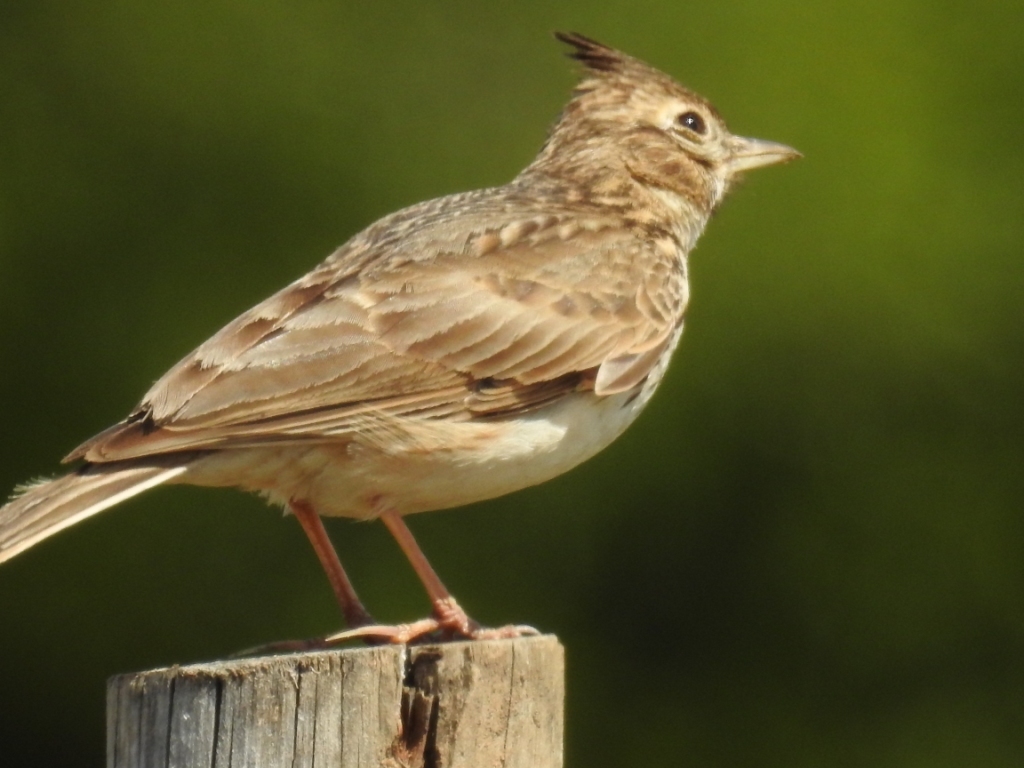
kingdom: Animalia
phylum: Chordata
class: Aves
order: Passeriformes
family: Alaudidae
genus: Galerida
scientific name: Galerida theklae
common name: Thekla lark
